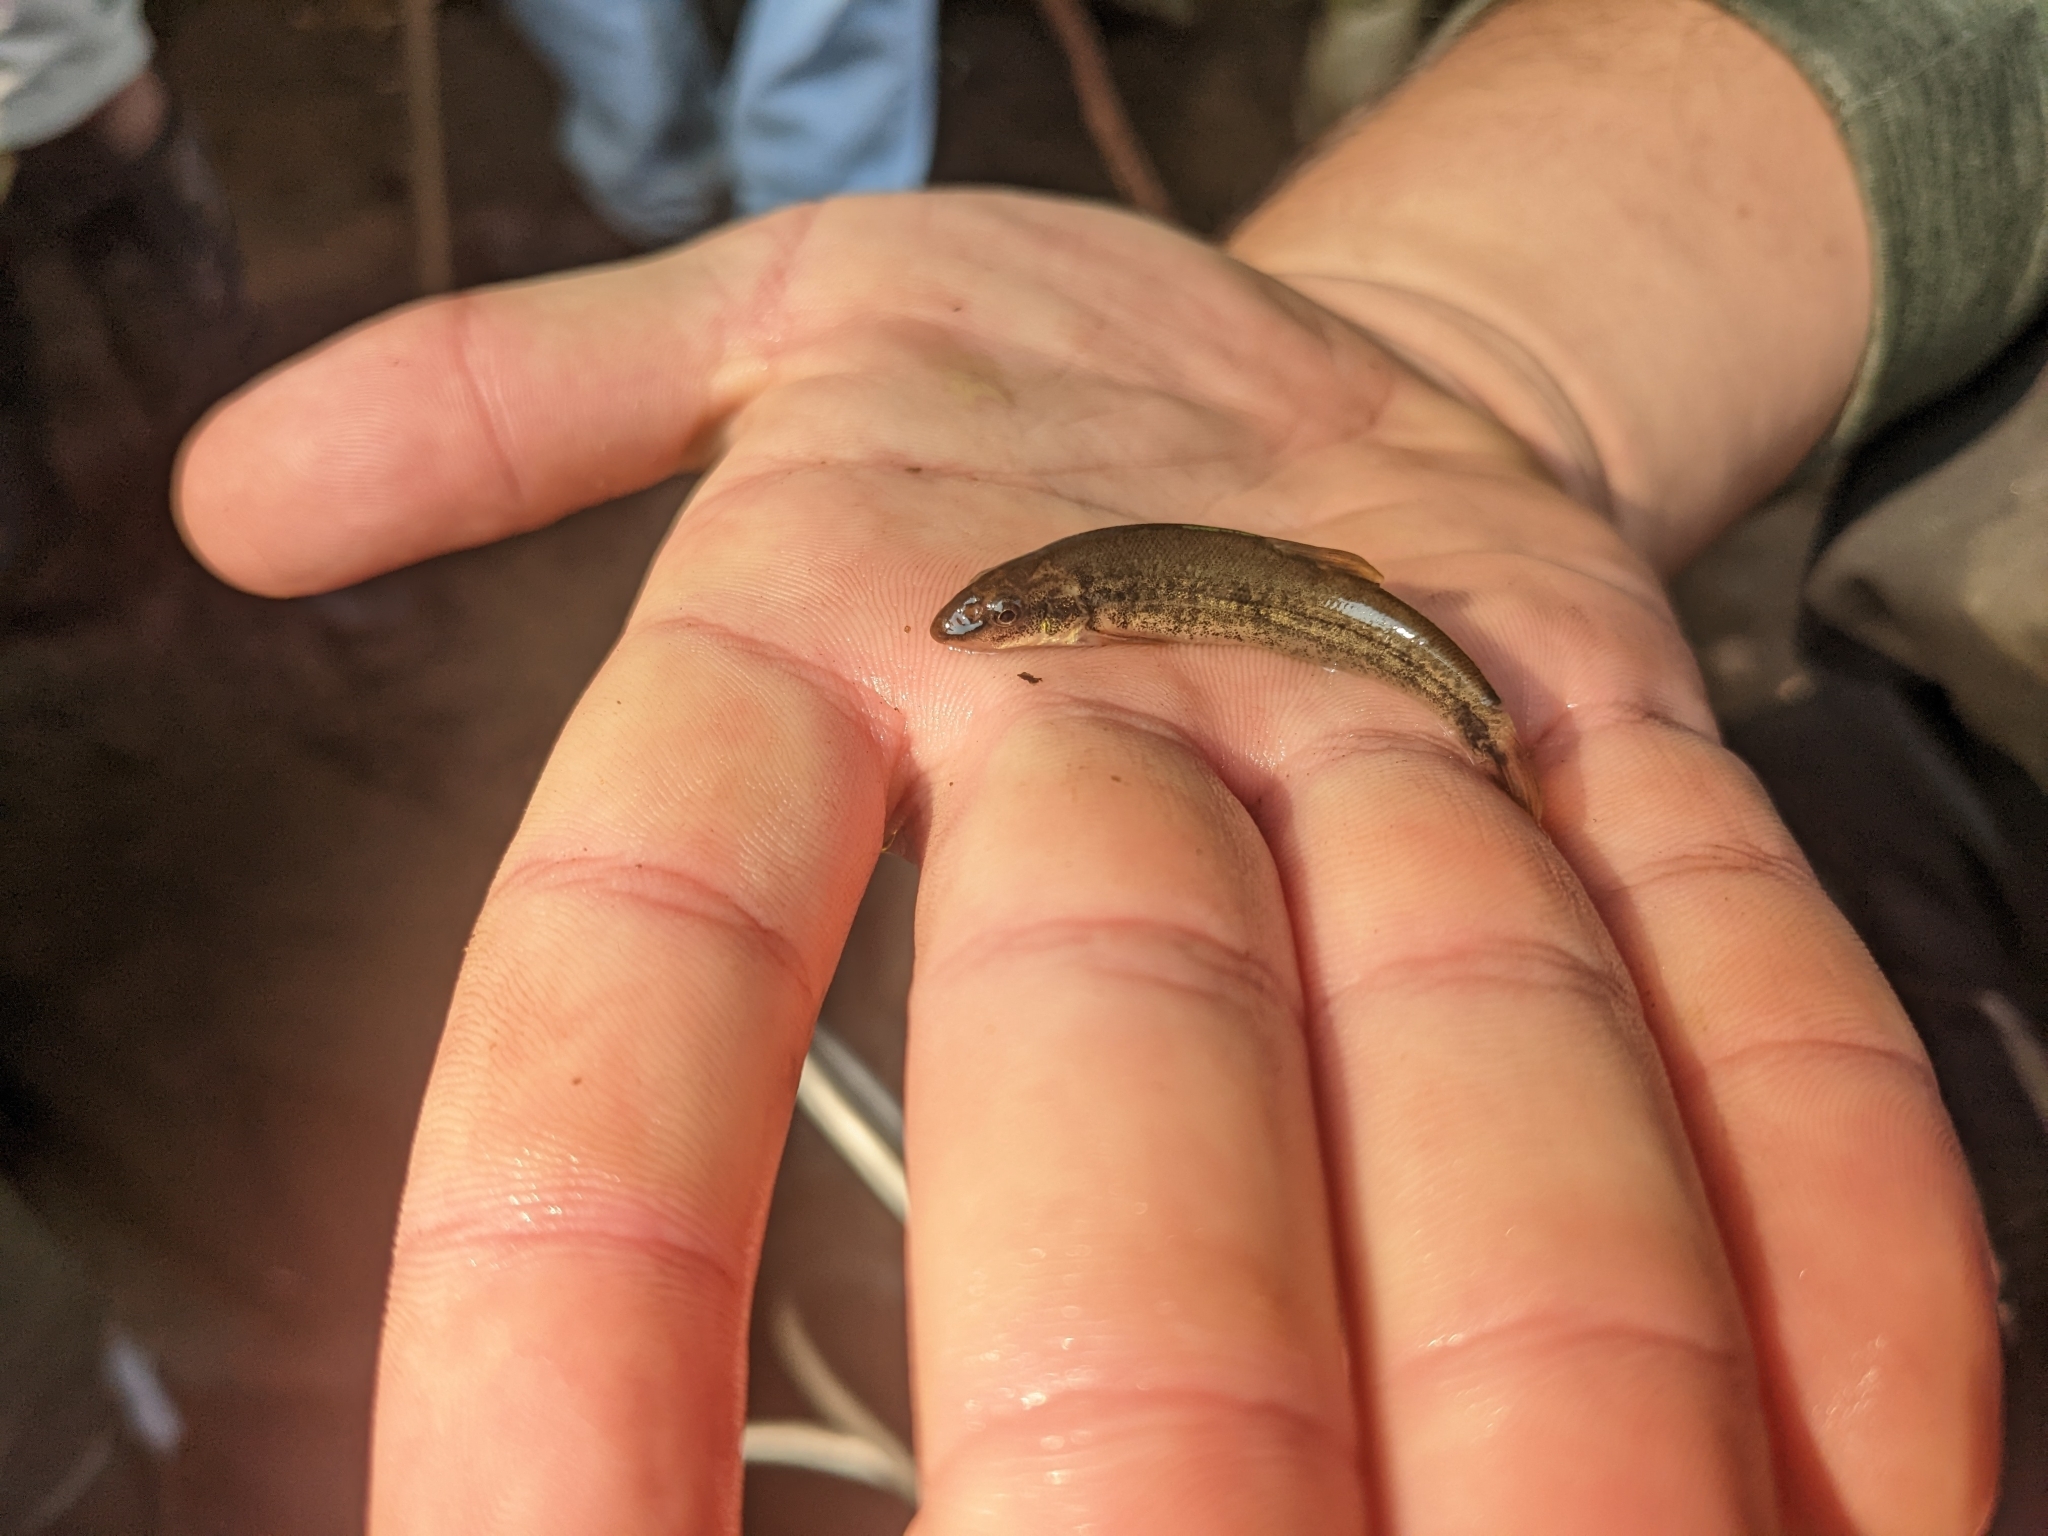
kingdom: Animalia
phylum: Chordata
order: Cypriniformes
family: Cyprinidae
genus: Rhinichthys
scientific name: Rhinichthys cataractae
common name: Longnose dace
